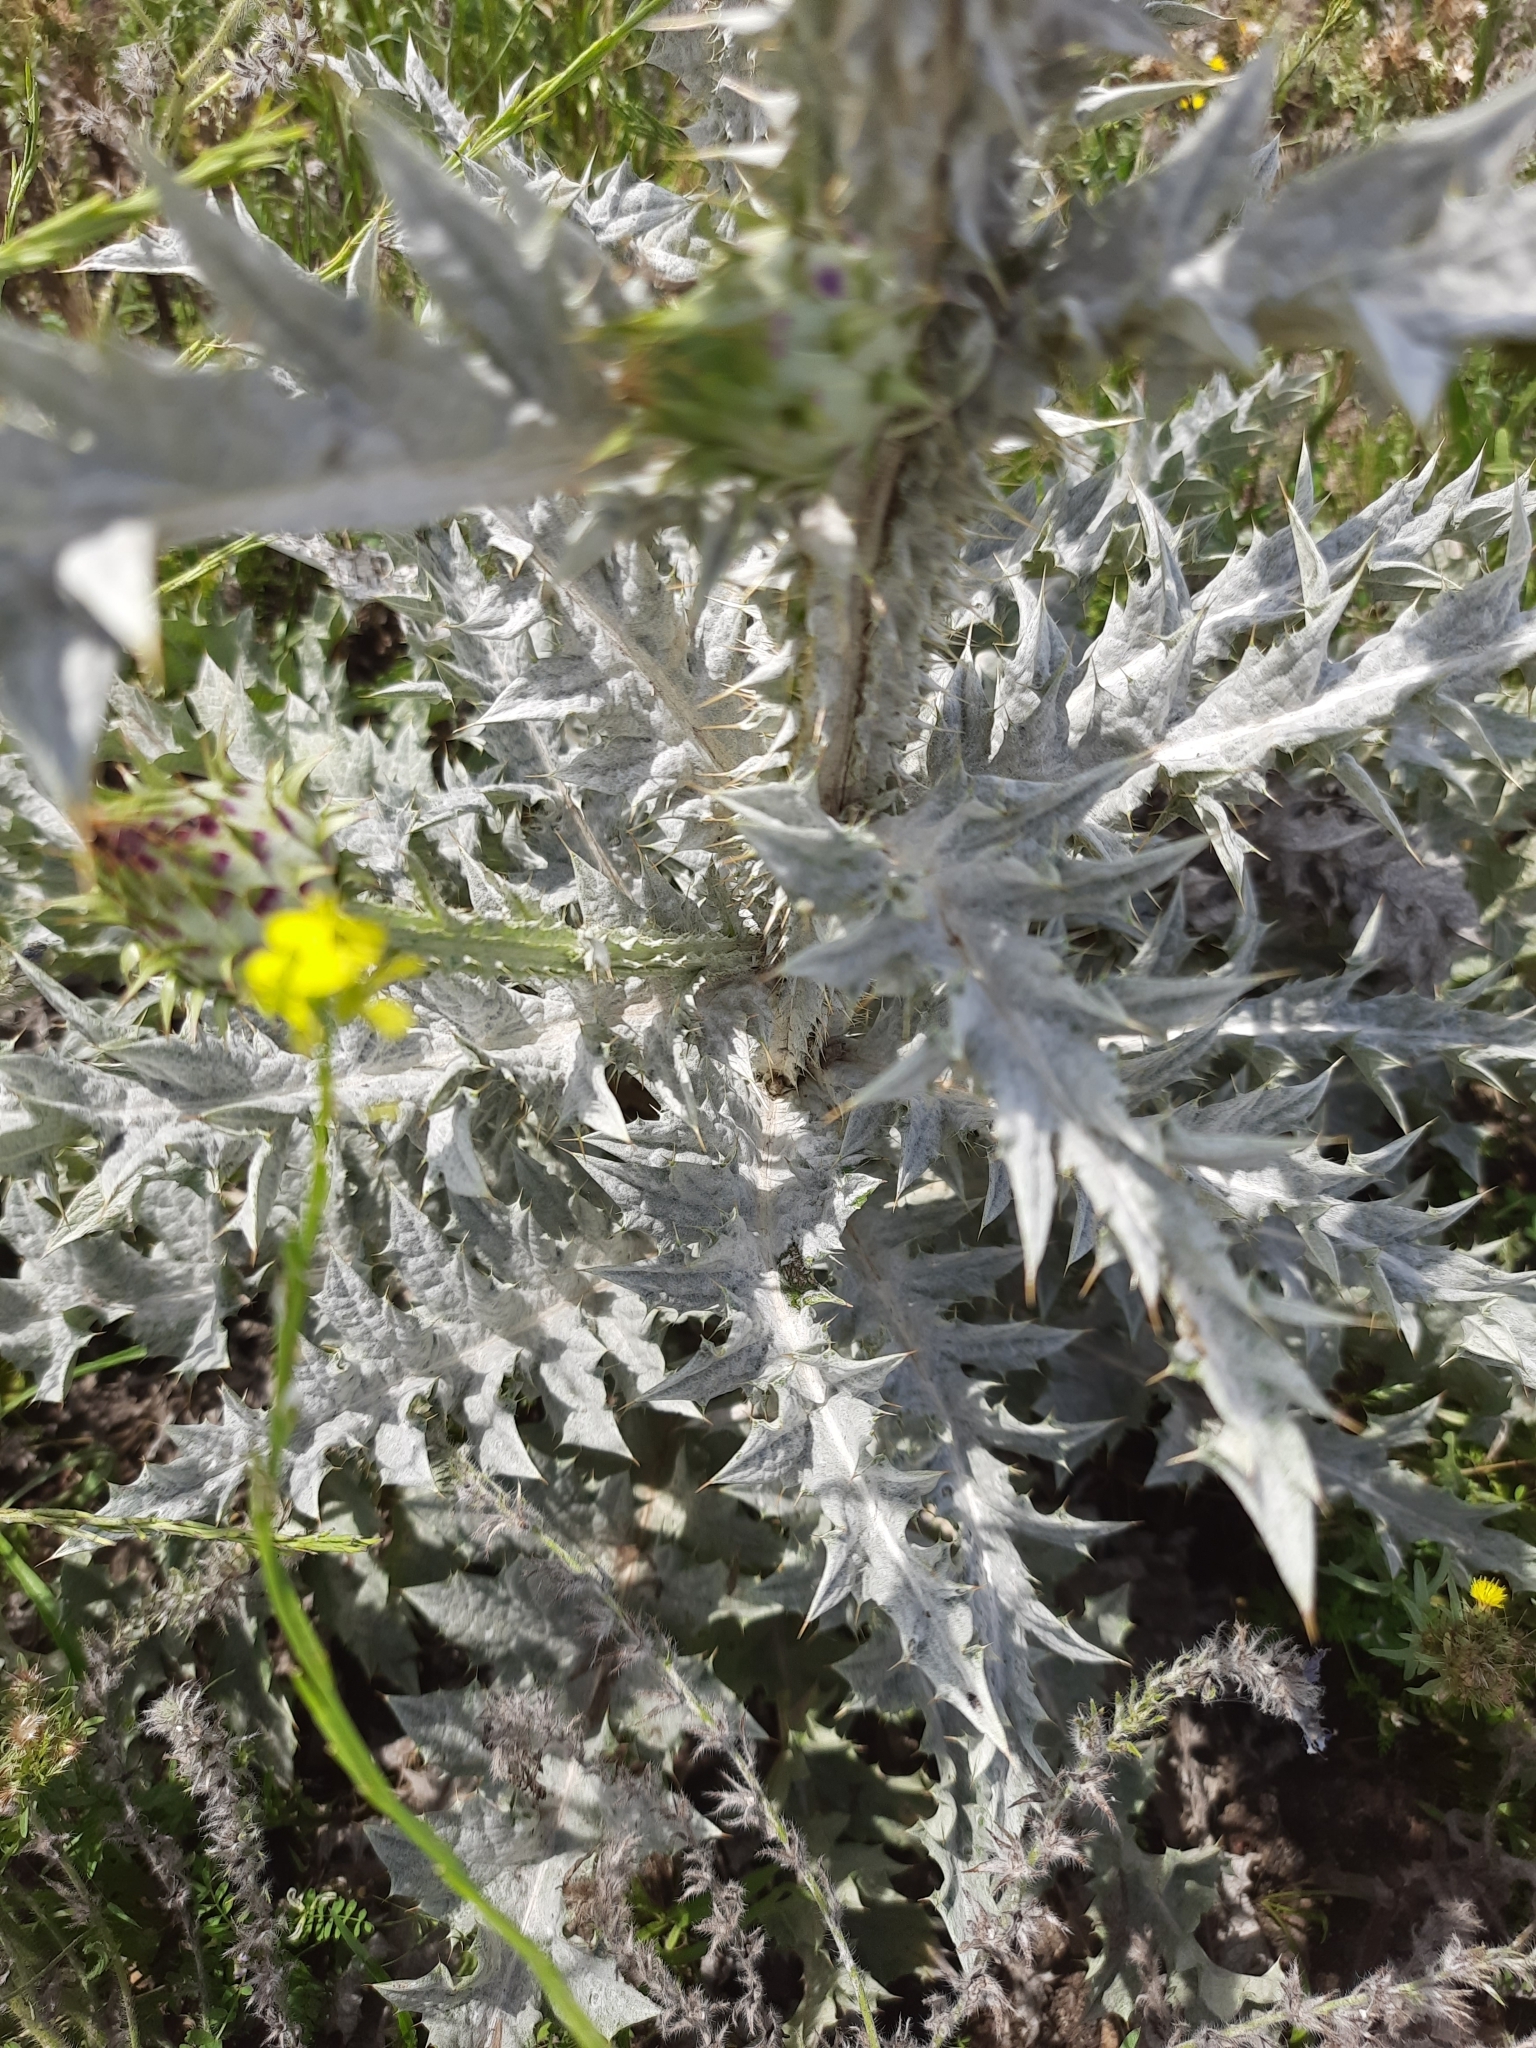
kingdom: Plantae
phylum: Tracheophyta
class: Magnoliopsida
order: Asterales
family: Asteraceae
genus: Onopordum
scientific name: Onopordum illyricum
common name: Illyrian thistle
